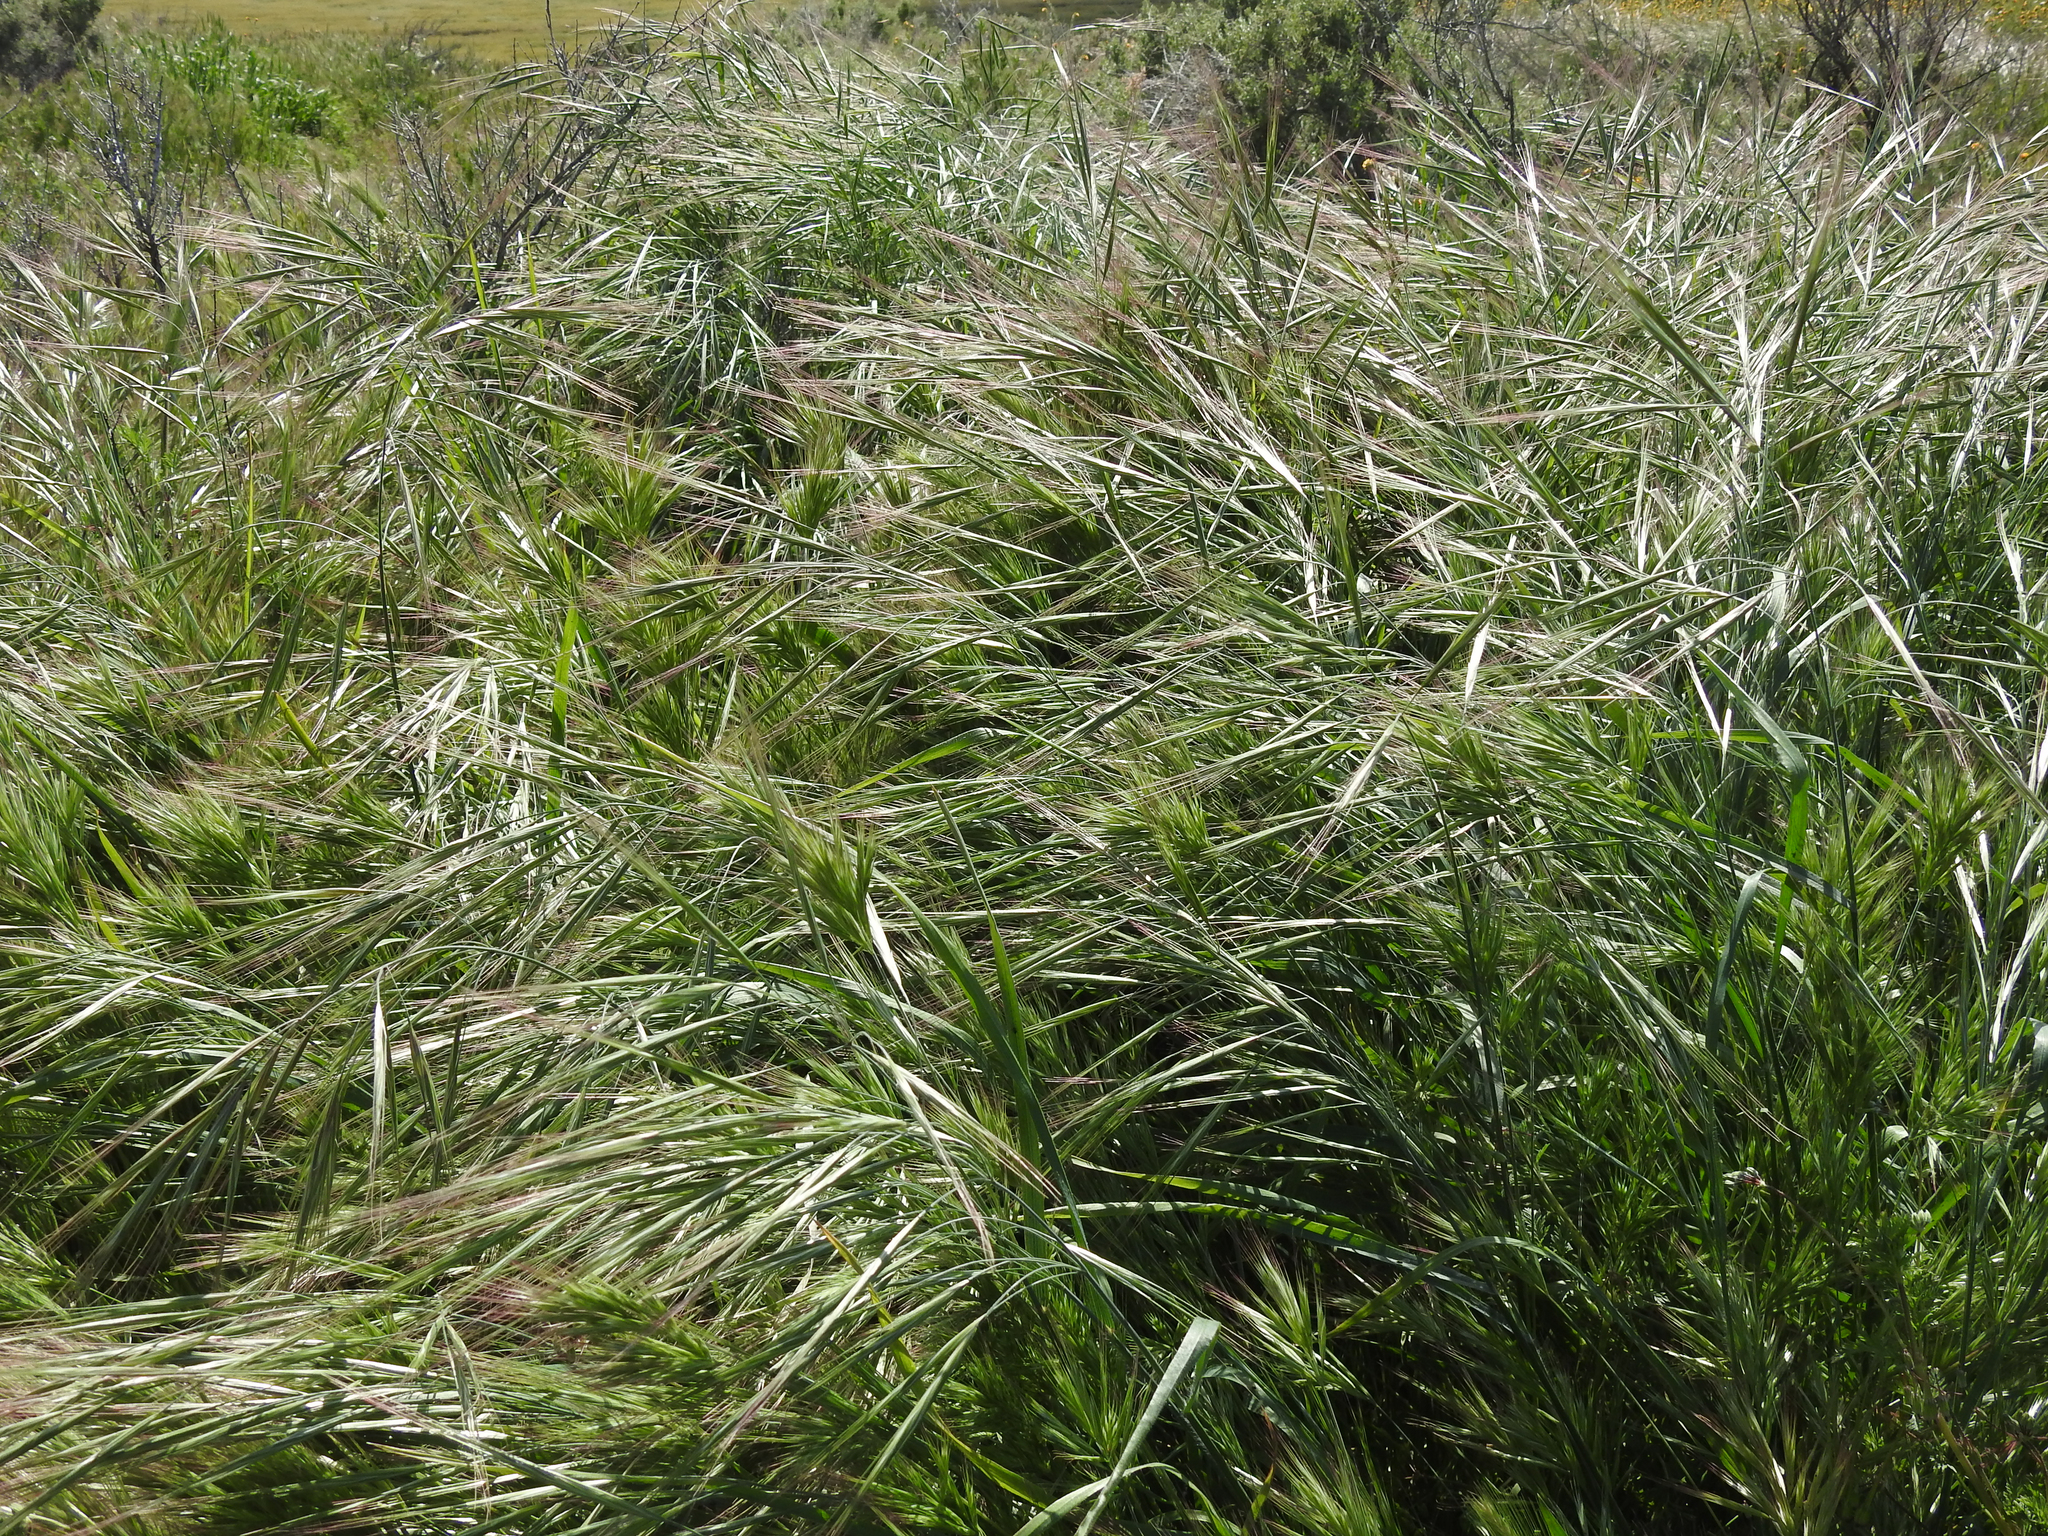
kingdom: Plantae
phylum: Tracheophyta
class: Liliopsida
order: Poales
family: Poaceae
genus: Bromus
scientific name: Bromus diandrus
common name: Ripgut brome
